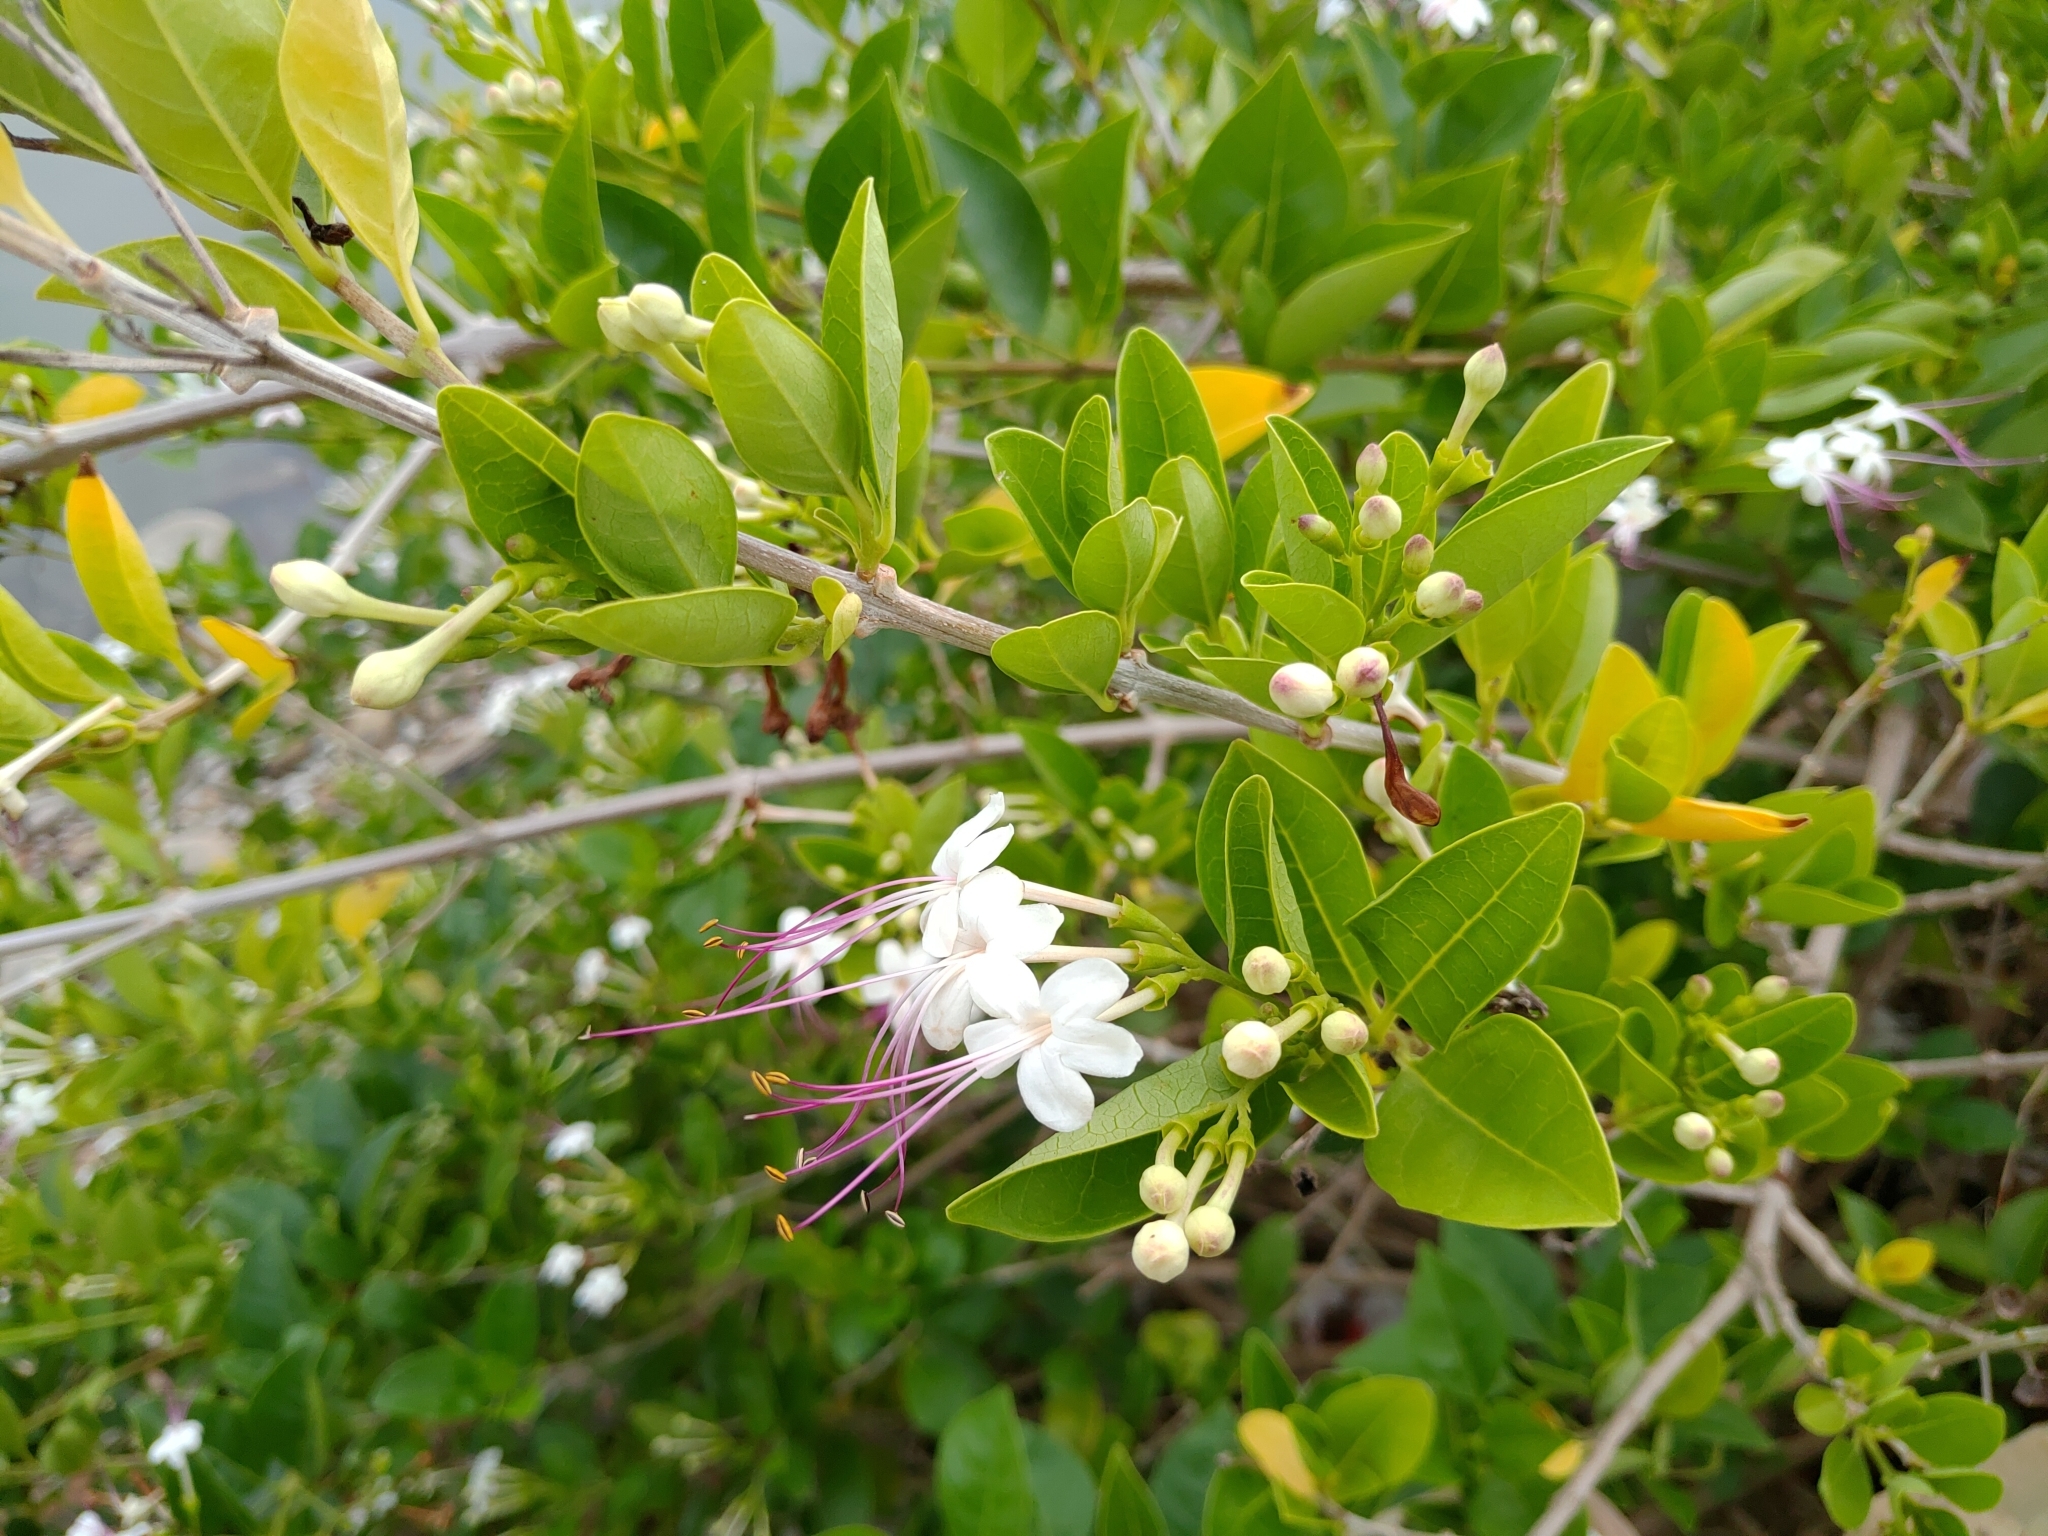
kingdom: Plantae
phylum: Tracheophyta
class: Magnoliopsida
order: Lamiales
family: Lamiaceae
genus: Volkameria
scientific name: Volkameria inermis
